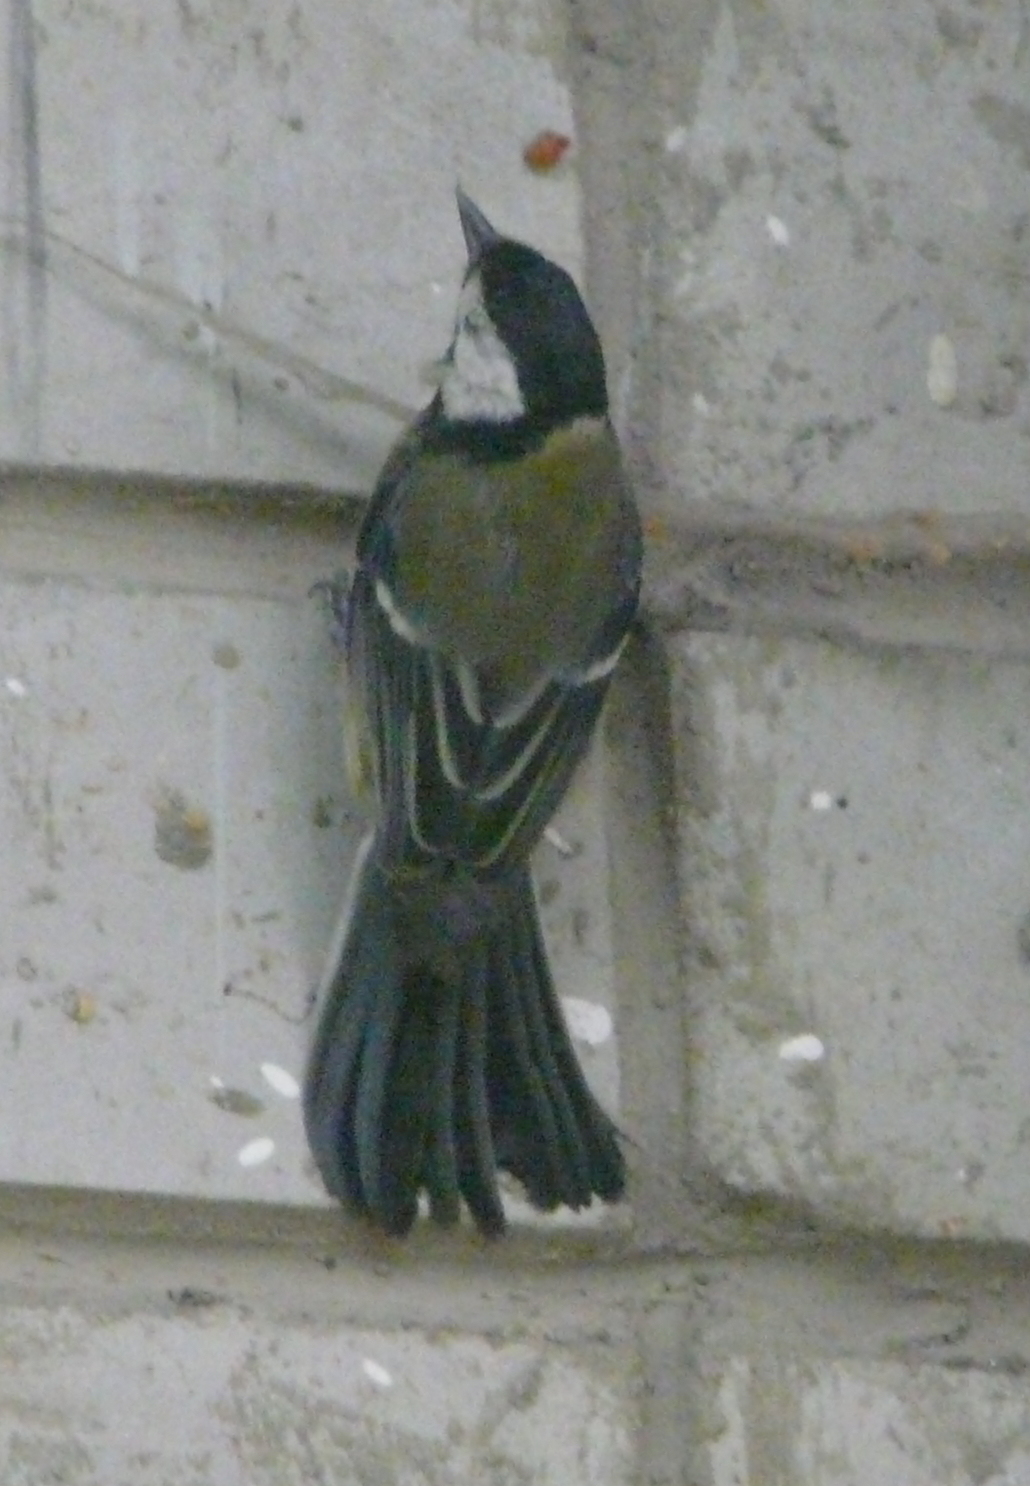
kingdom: Animalia
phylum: Chordata
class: Aves
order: Passeriformes
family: Paridae
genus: Parus
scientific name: Parus major
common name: Great tit
